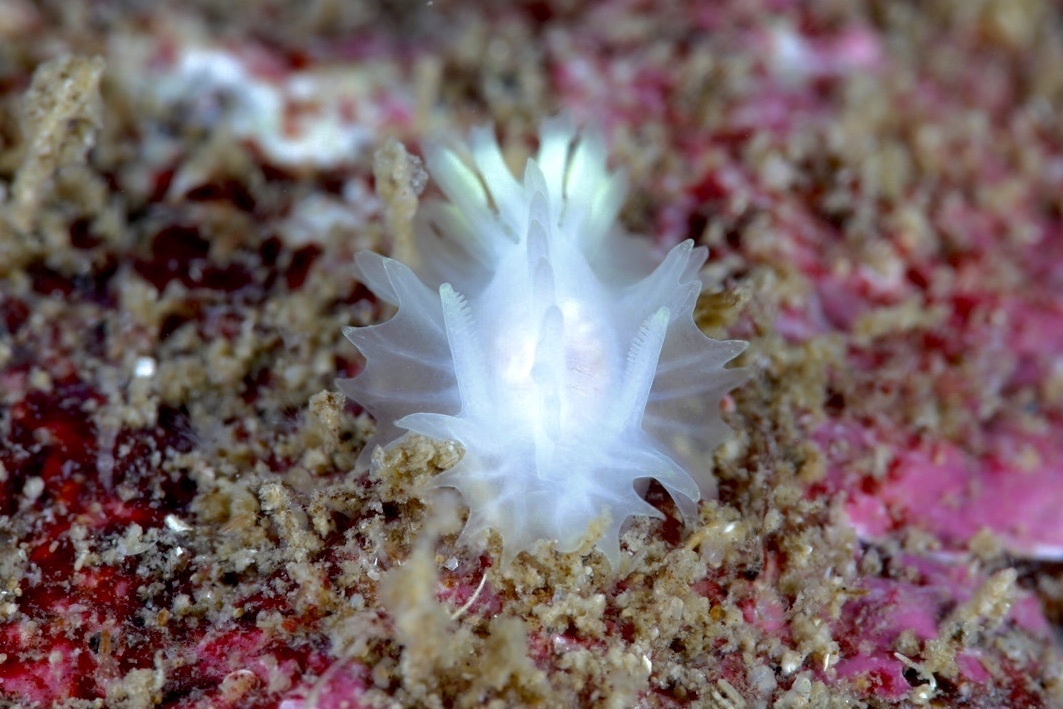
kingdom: Animalia
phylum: Mollusca
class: Gastropoda
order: Nudibranchia
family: Goniodorididae
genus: Lophodoris
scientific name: Lophodoris danielsseni
